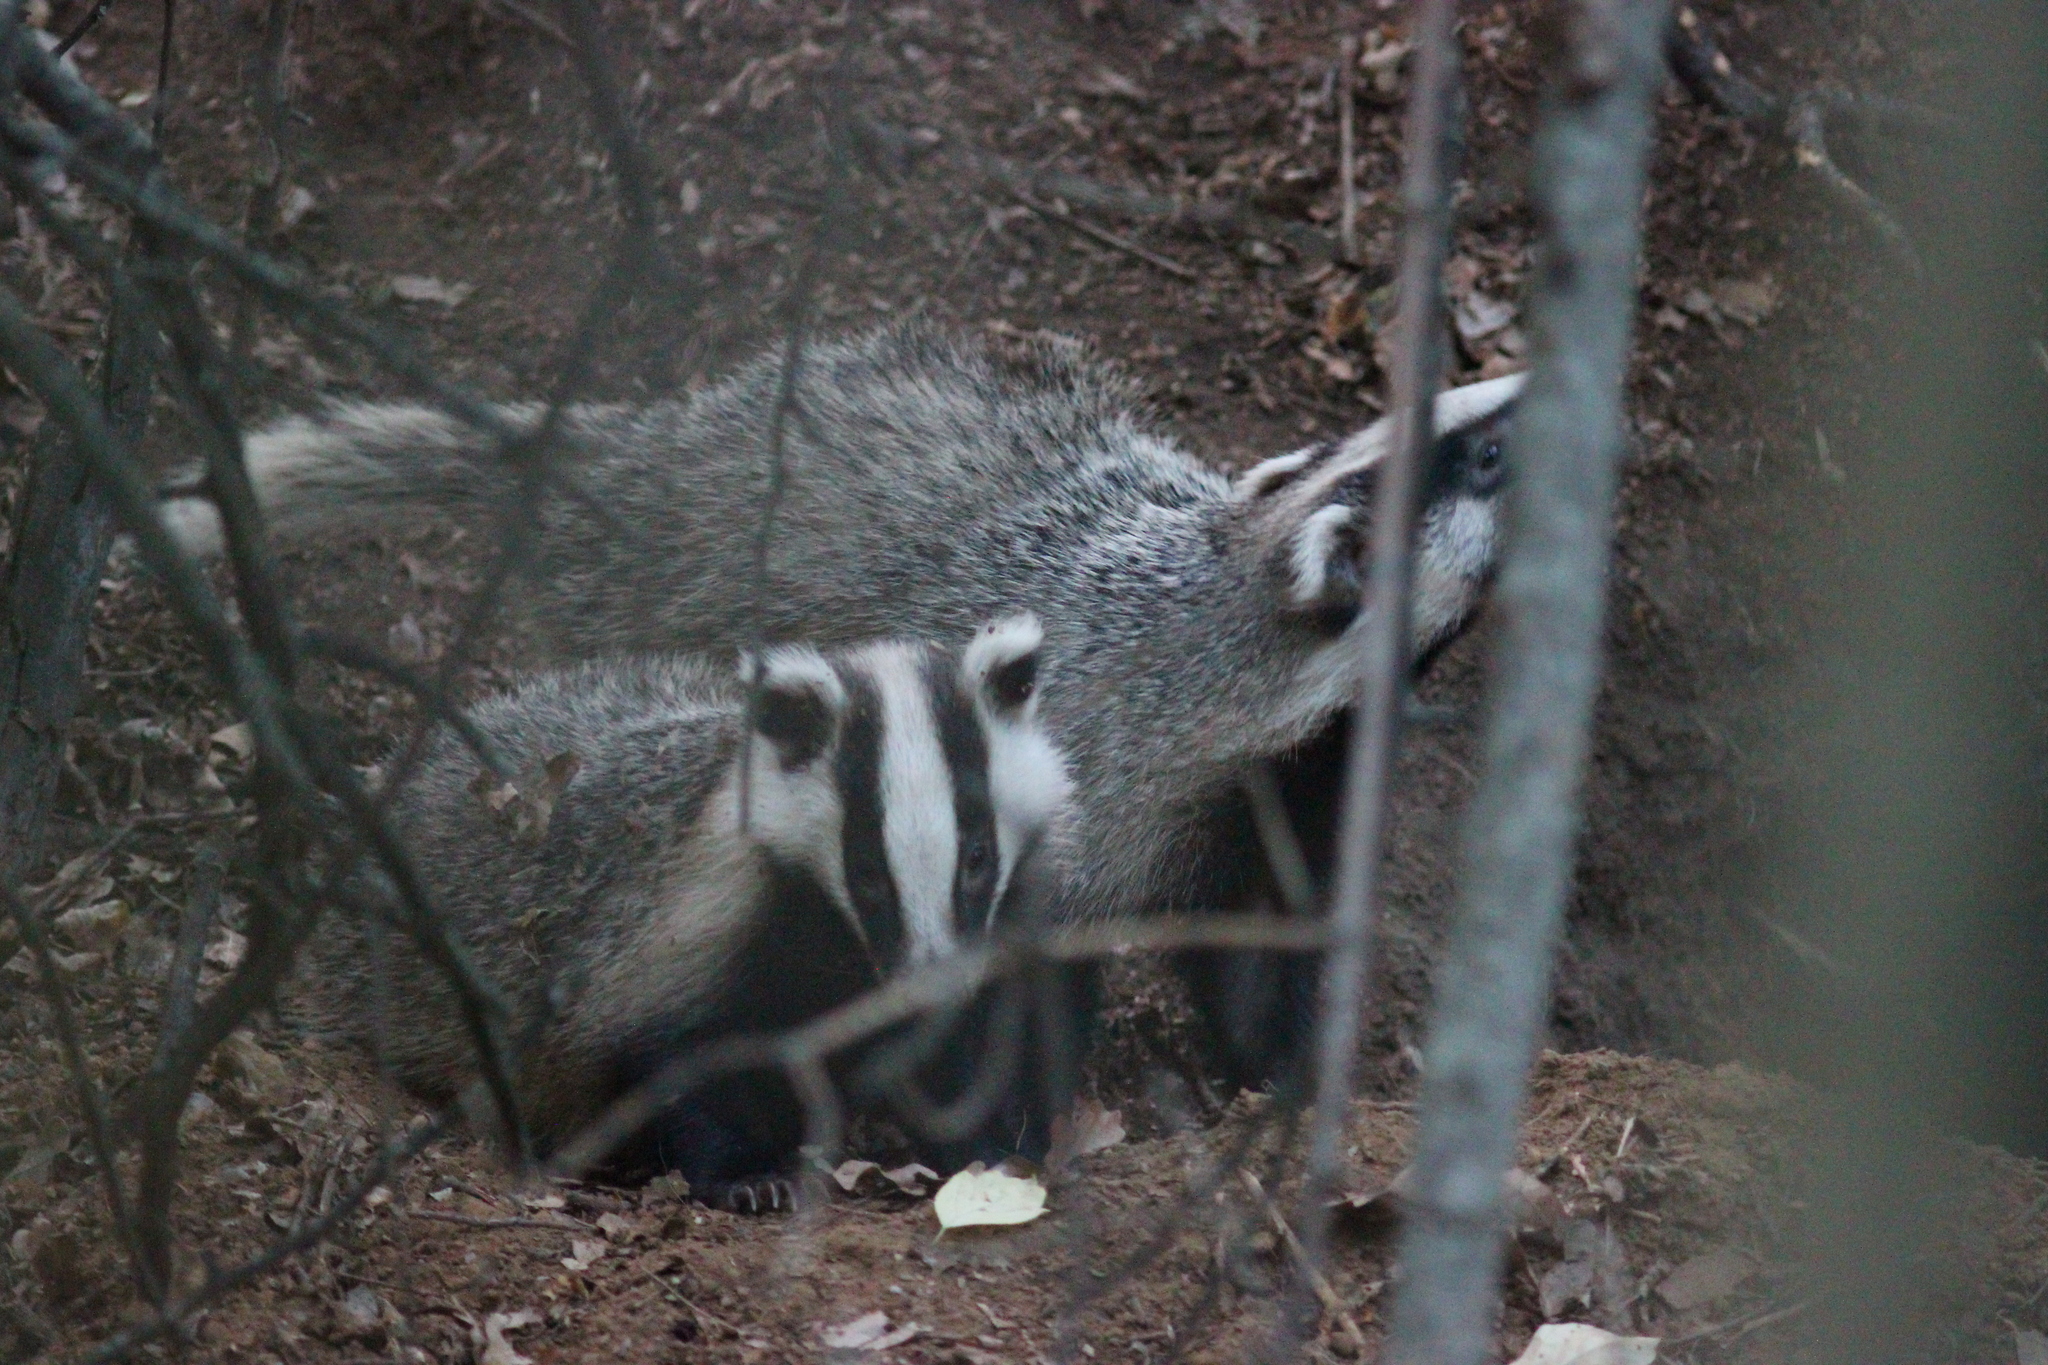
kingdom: Animalia
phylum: Chordata
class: Mammalia
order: Carnivora
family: Mustelidae
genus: Meles
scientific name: Meles leucurus
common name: Asian badger
